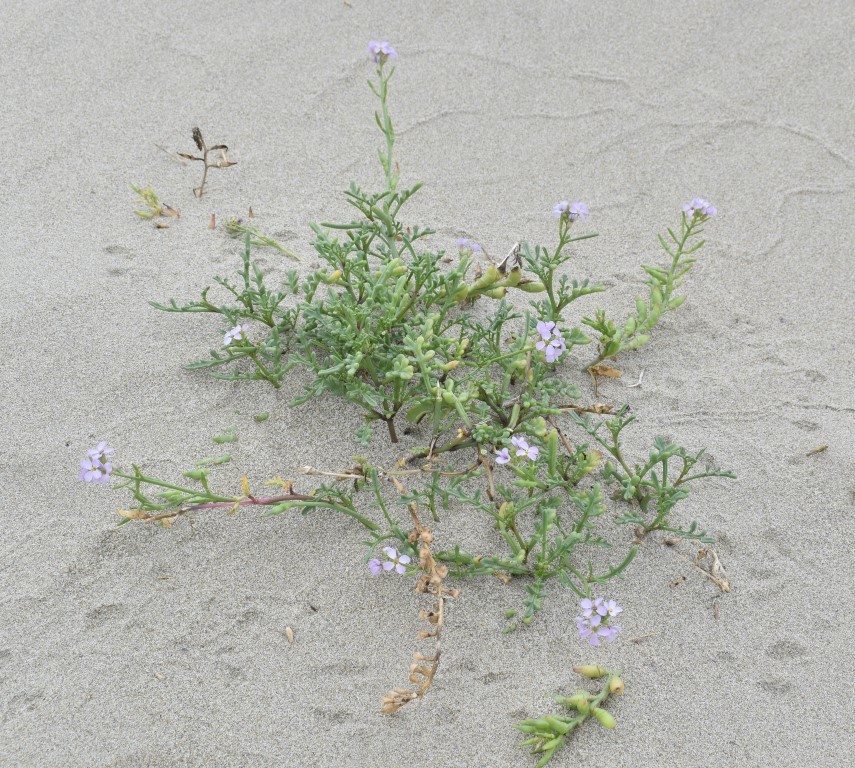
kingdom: Plantae
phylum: Tracheophyta
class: Magnoliopsida
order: Brassicales
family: Brassicaceae
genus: Cakile
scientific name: Cakile maritima
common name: Sea rocket
